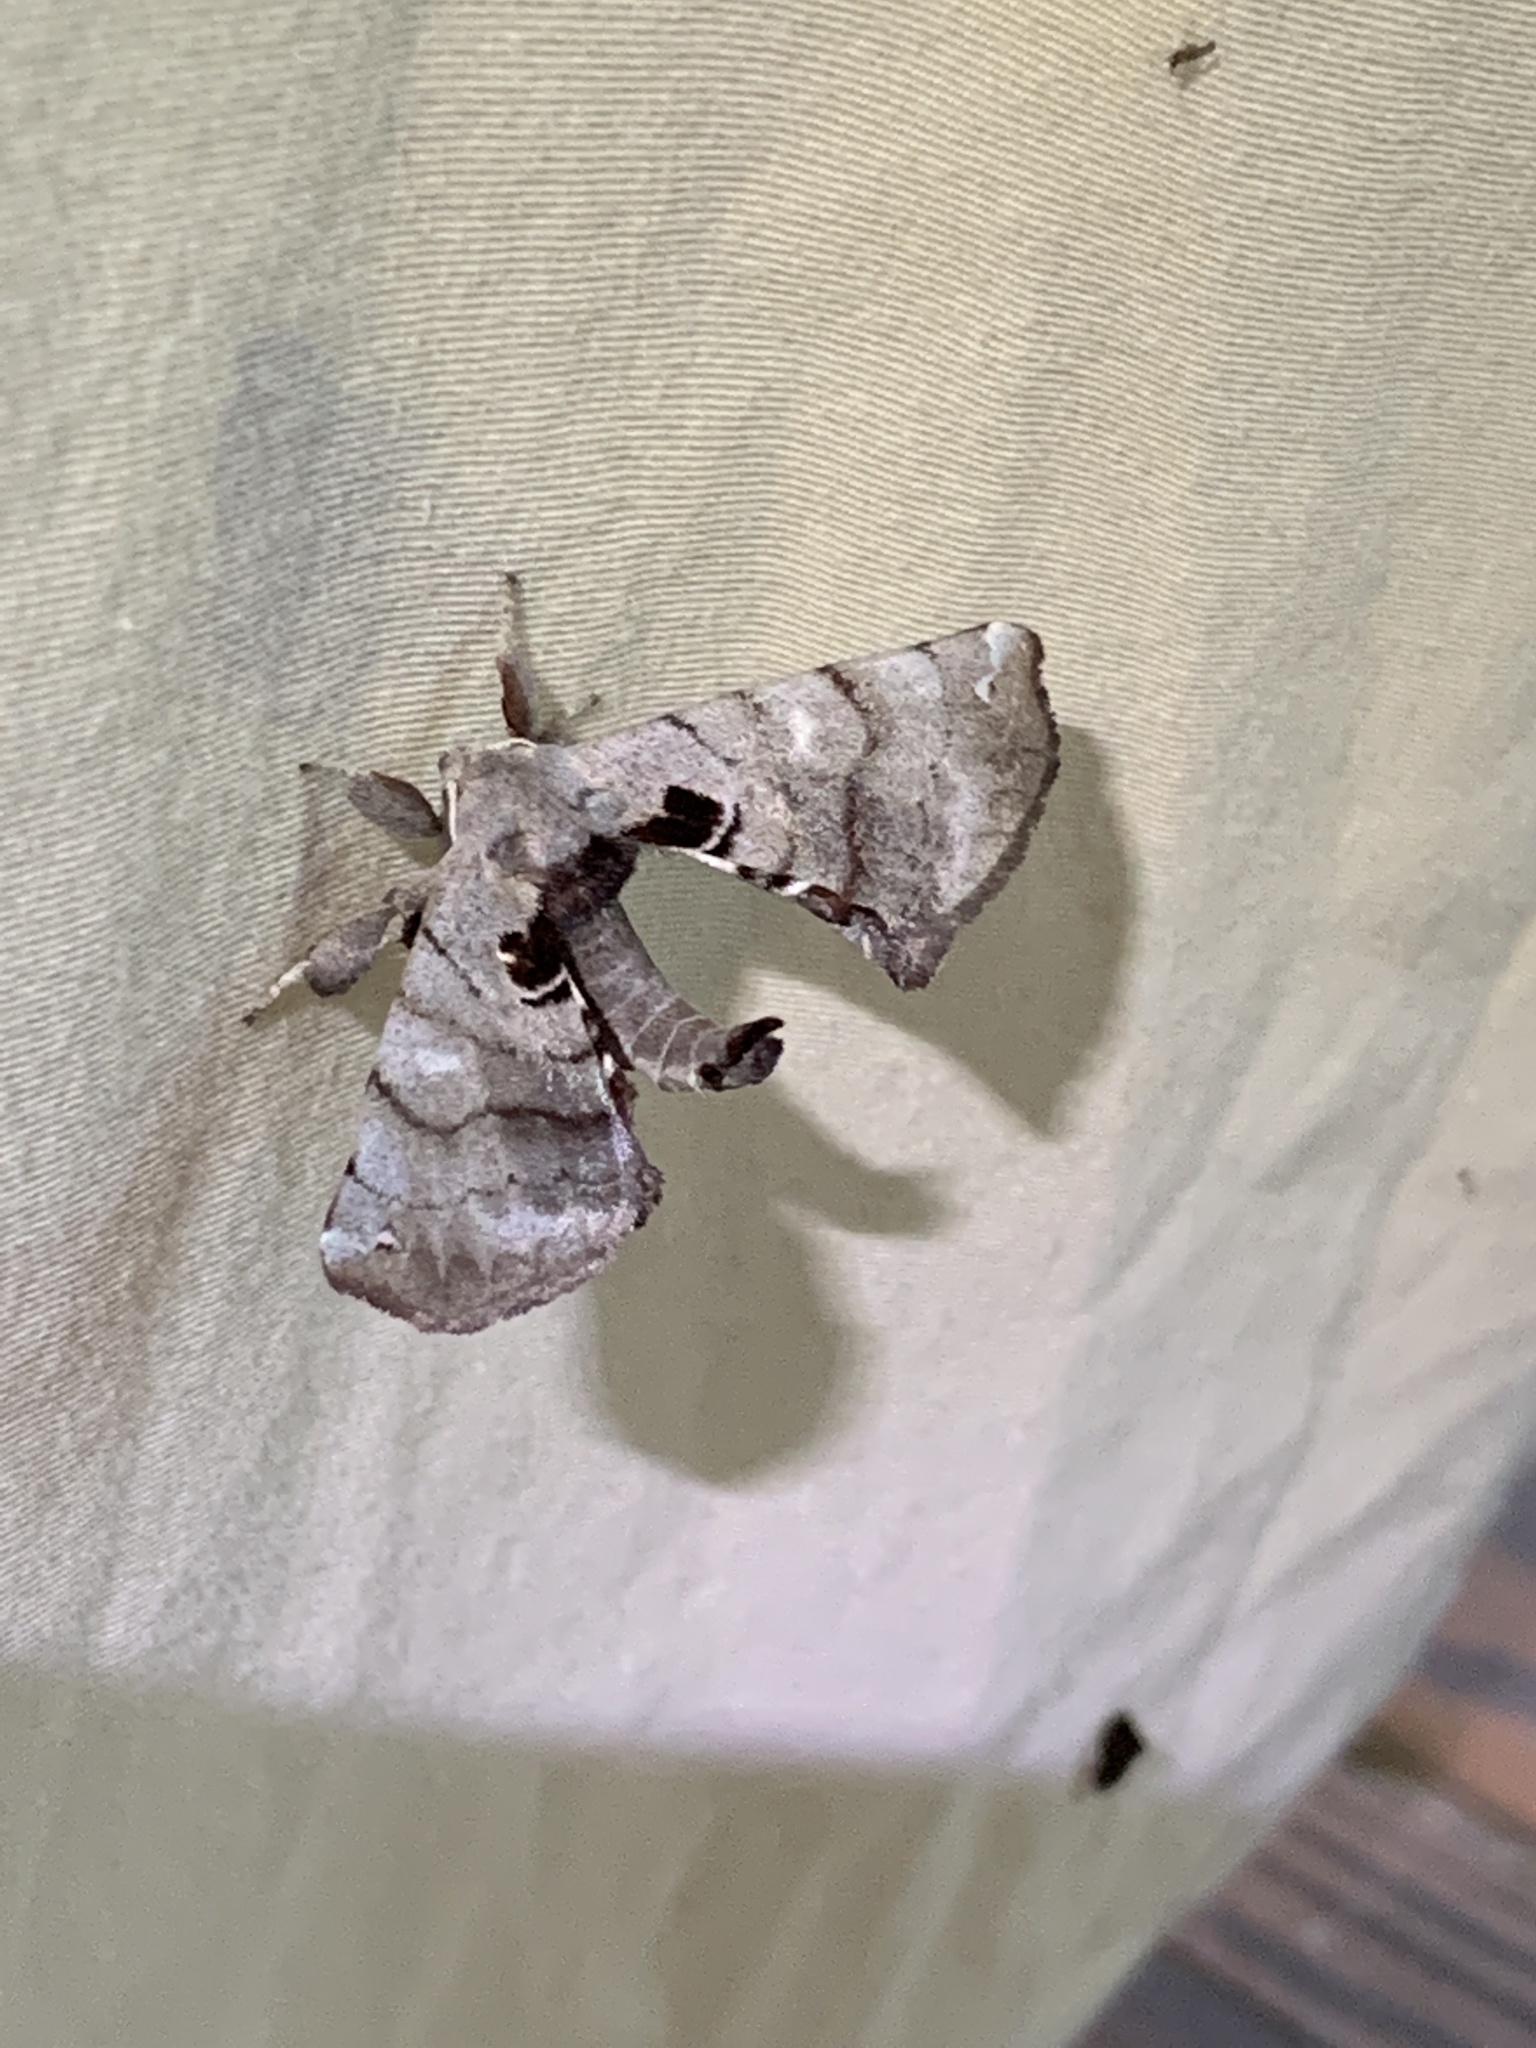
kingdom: Animalia
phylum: Arthropoda
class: Insecta
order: Lepidoptera
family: Apatelodidae
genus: Hygrochroa
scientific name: Hygrochroa Apatelodes torrefacta
